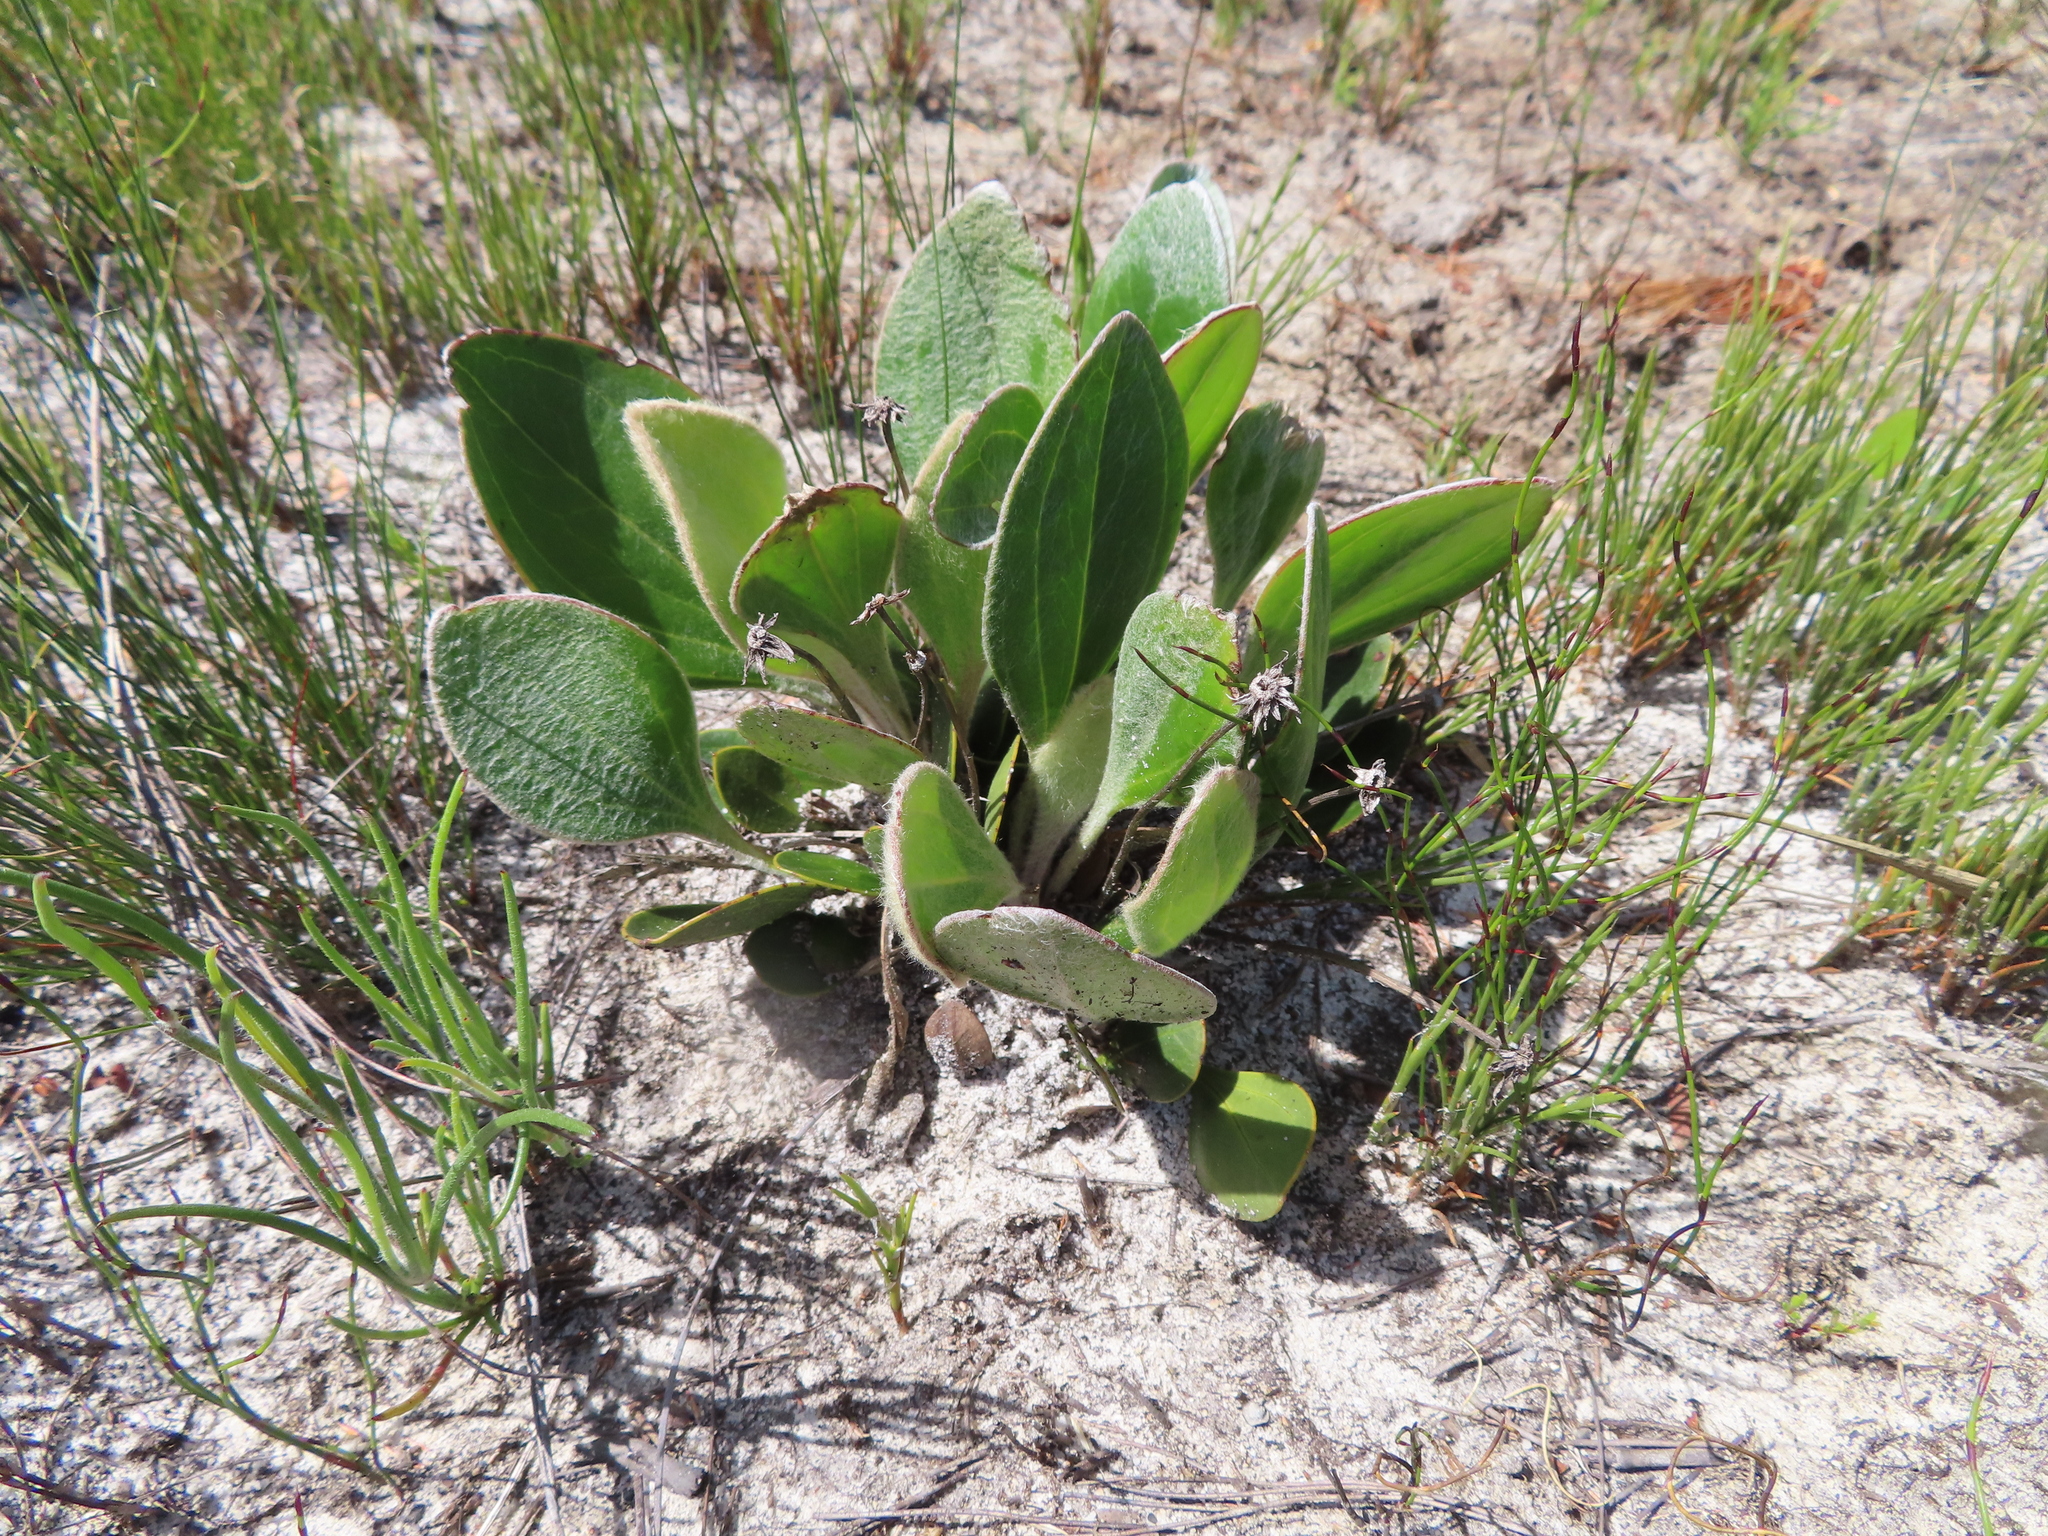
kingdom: Plantae
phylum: Tracheophyta
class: Magnoliopsida
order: Asterales
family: Asteraceae
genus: Mairia
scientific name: Mairia coriacea
